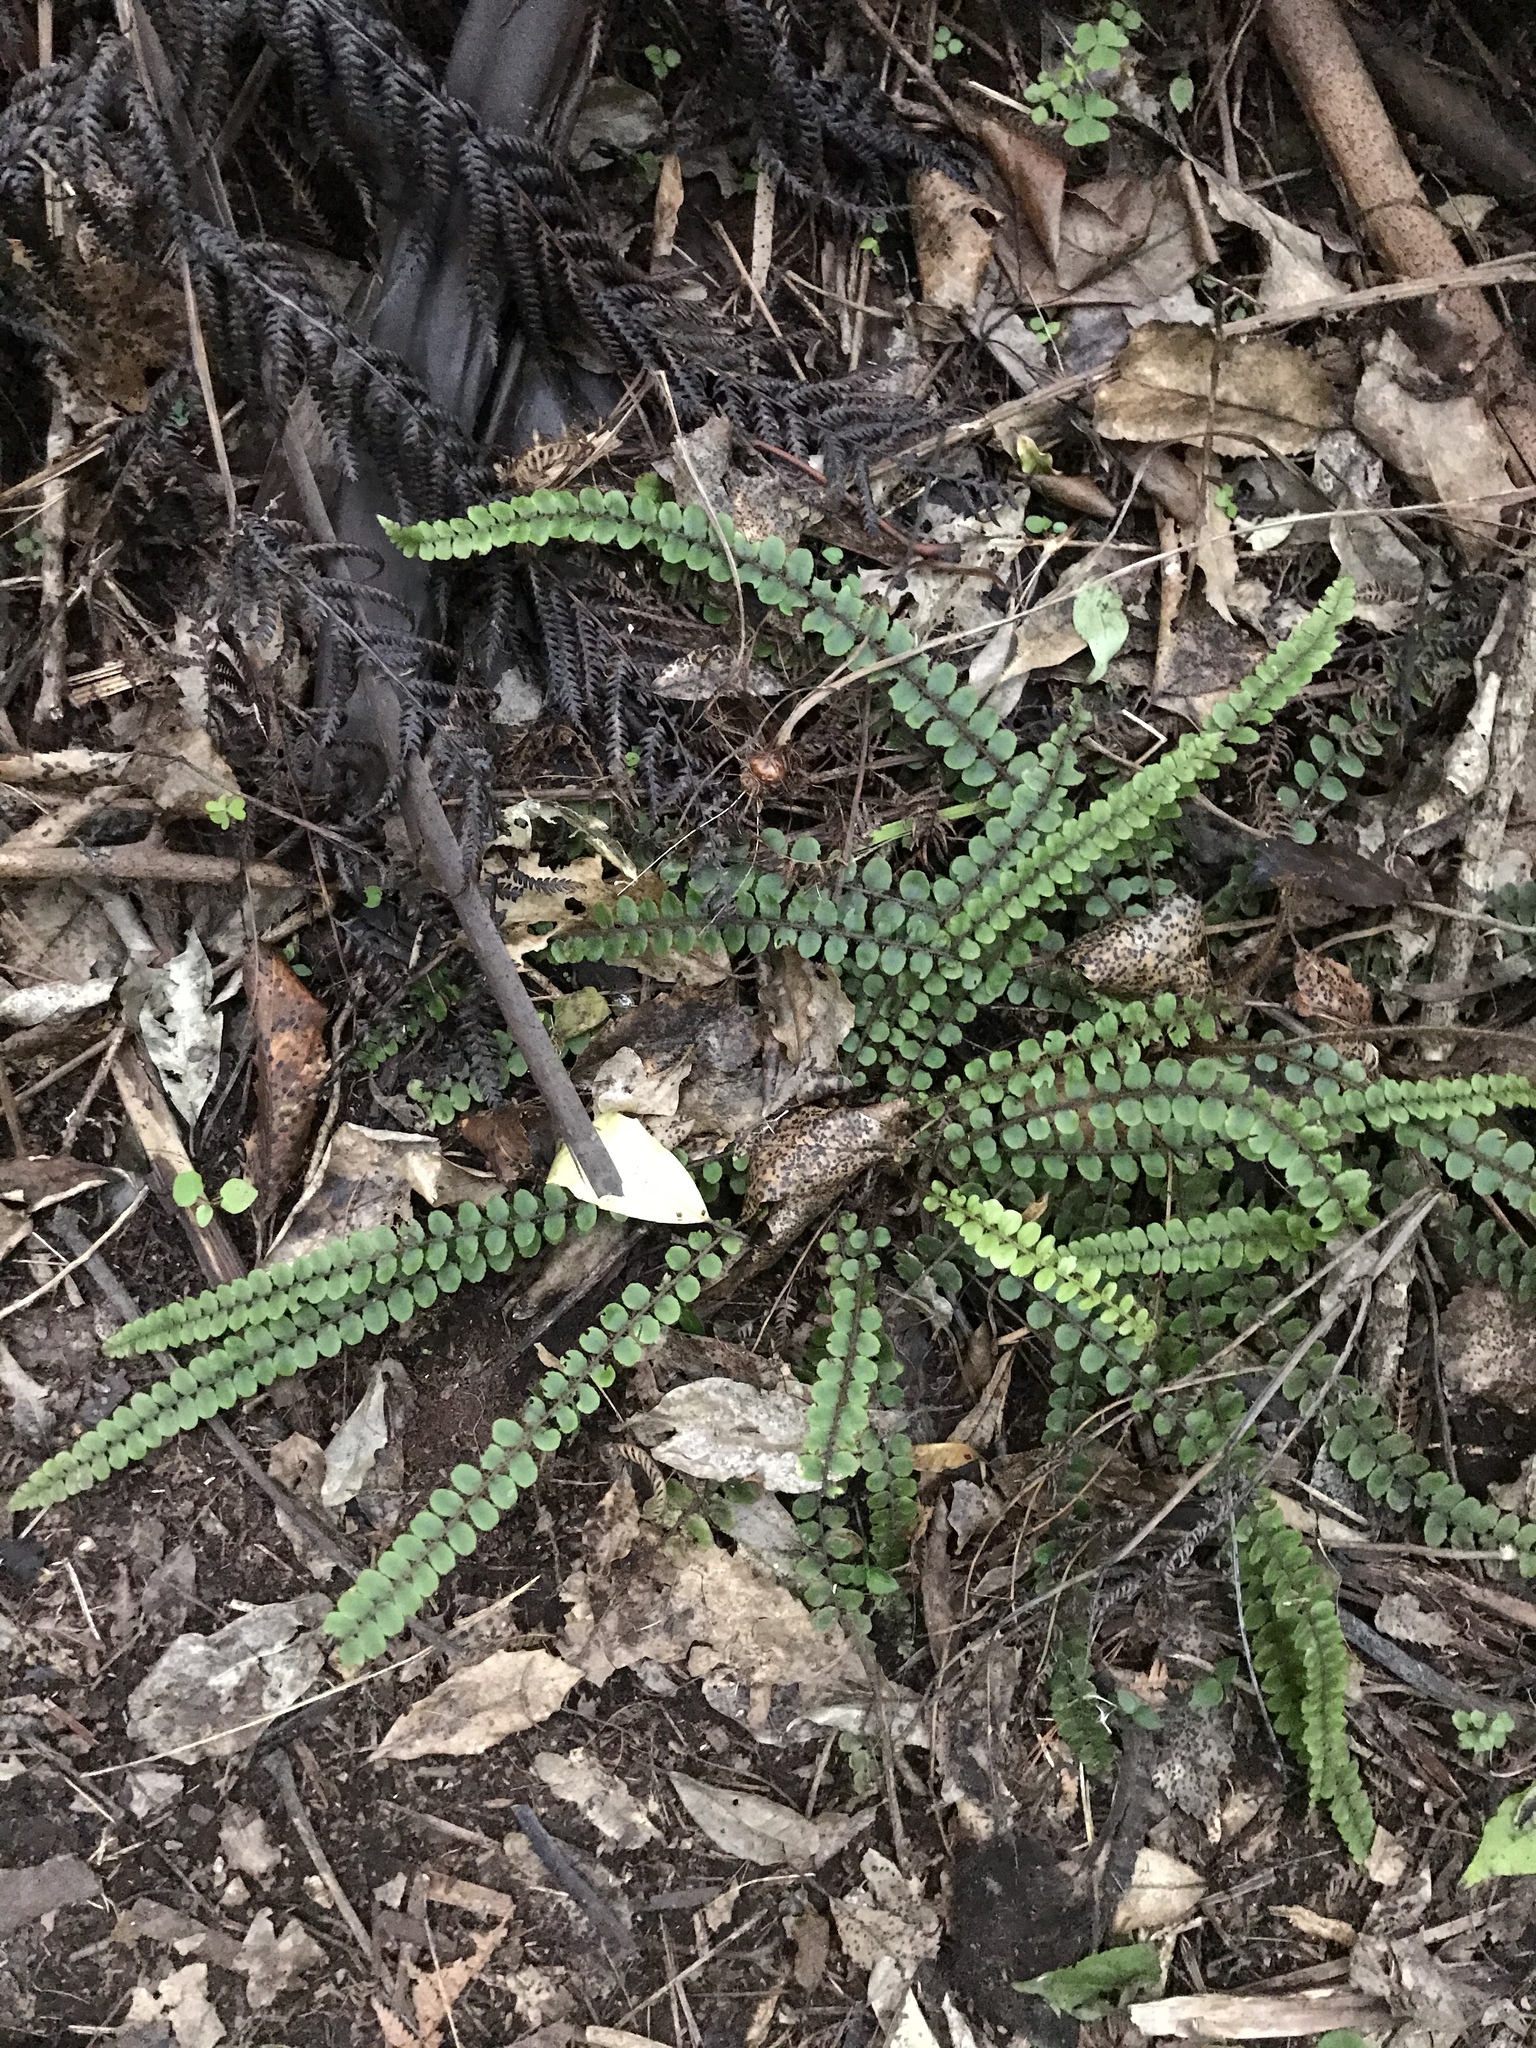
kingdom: Plantae
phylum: Tracheophyta
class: Polypodiopsida
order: Polypodiales
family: Blechnaceae
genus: Cranfillia
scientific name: Cranfillia fluviatilis
